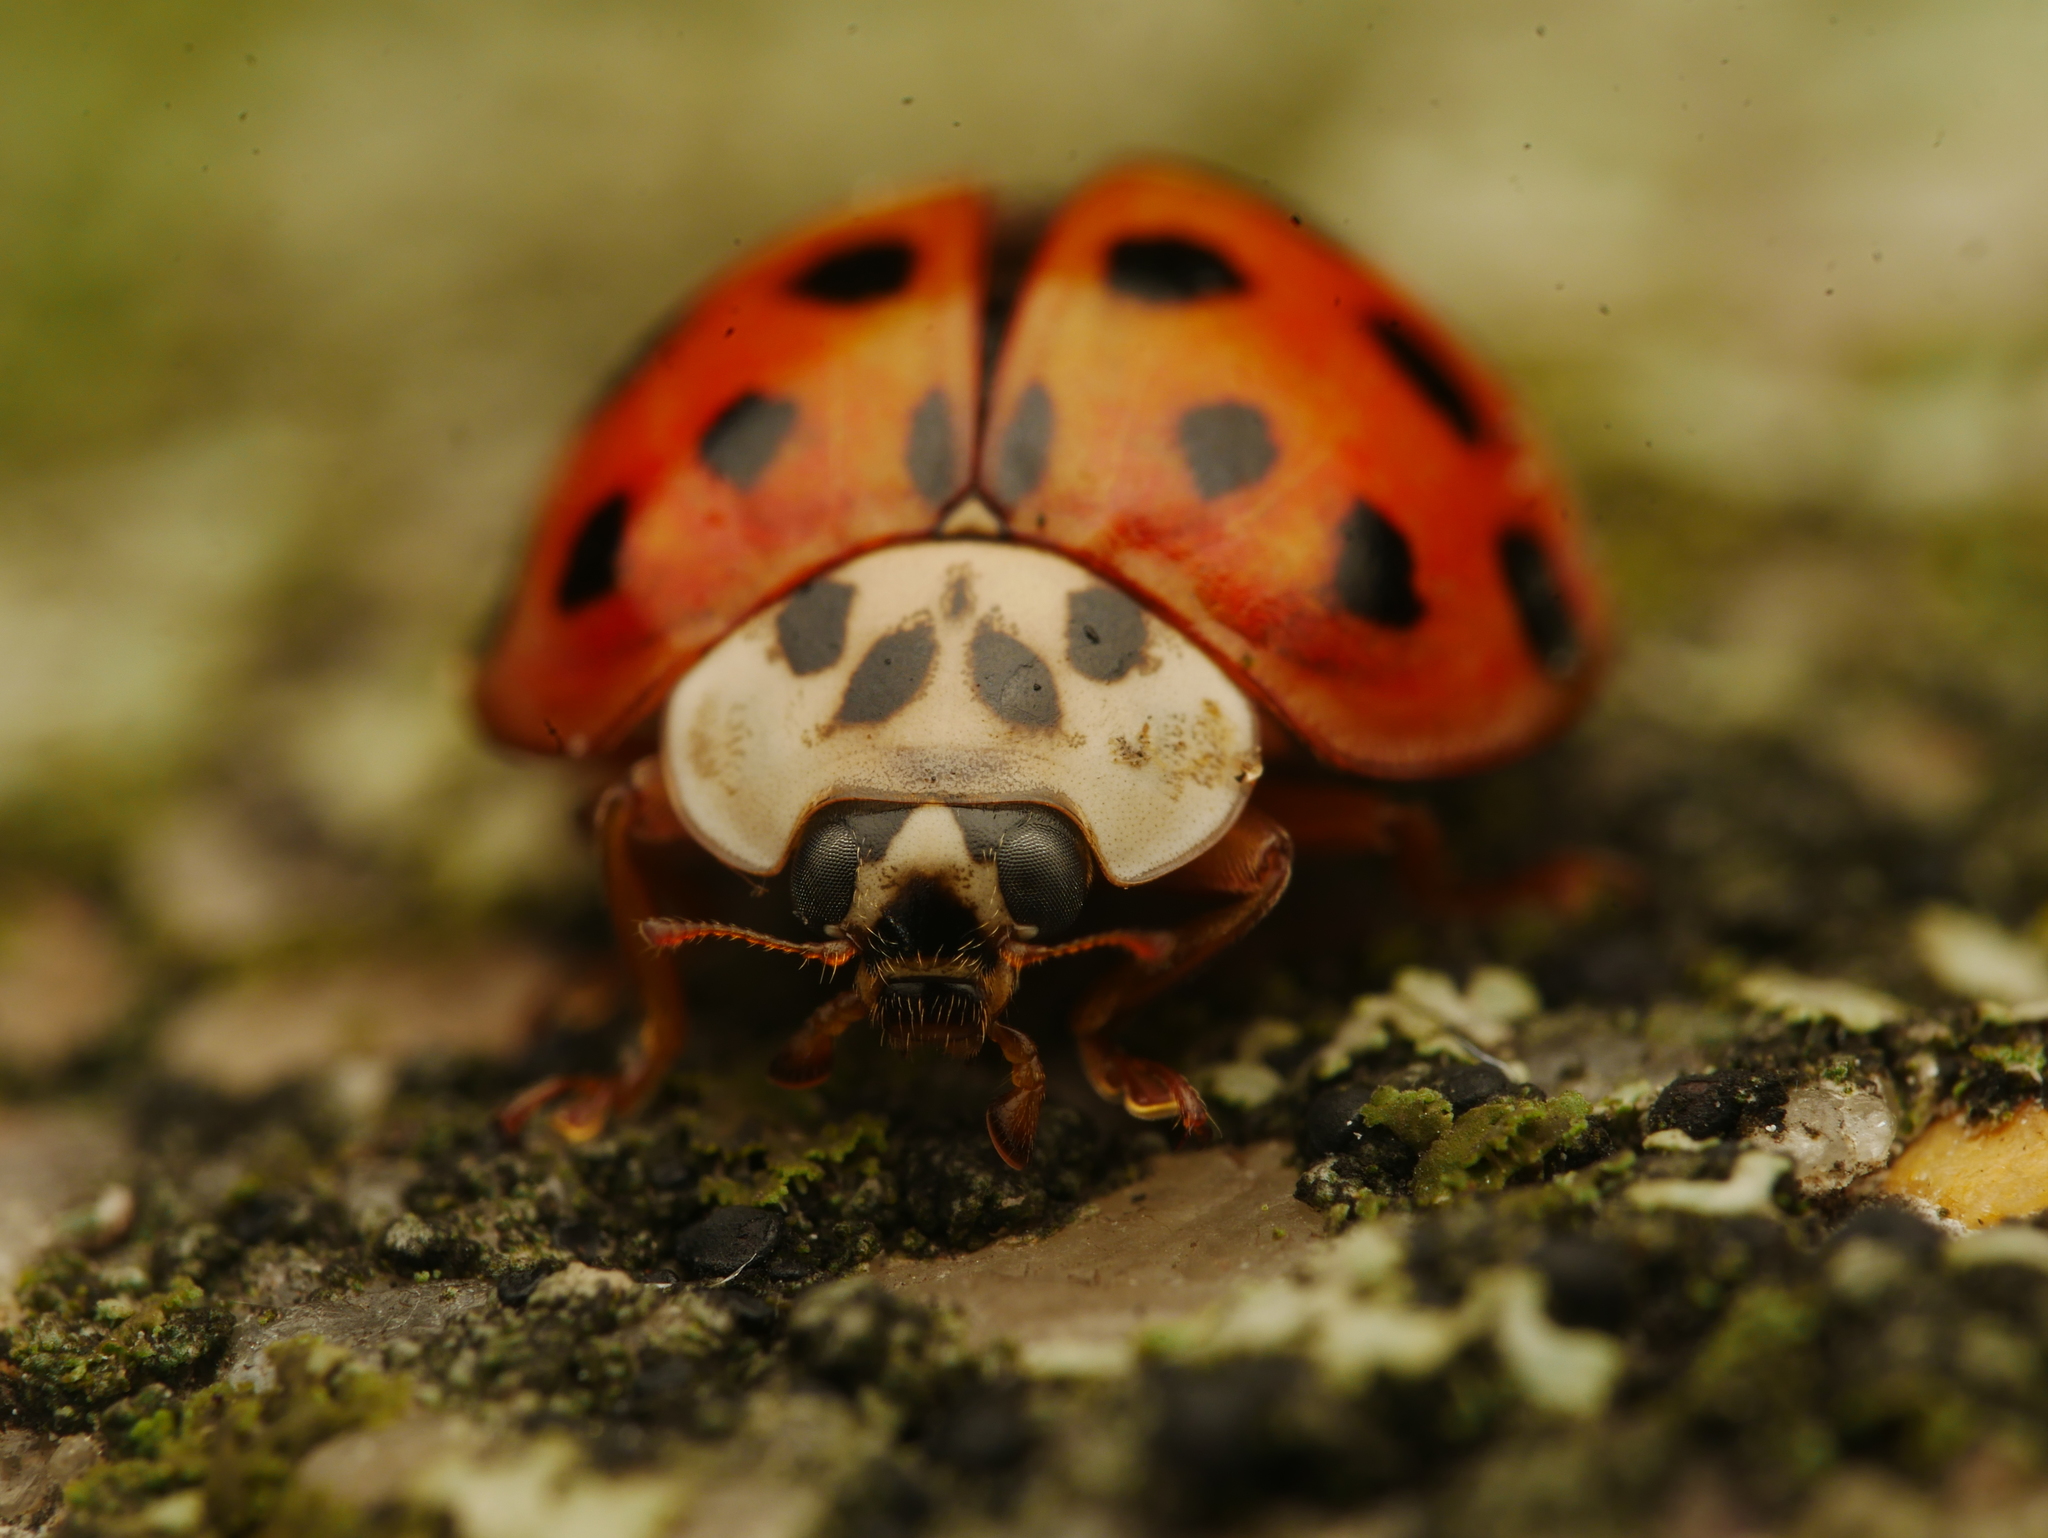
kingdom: Animalia
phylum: Arthropoda
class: Insecta
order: Coleoptera
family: Coccinellidae
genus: Harmonia
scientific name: Harmonia axyridis
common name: Harlequin ladybird
